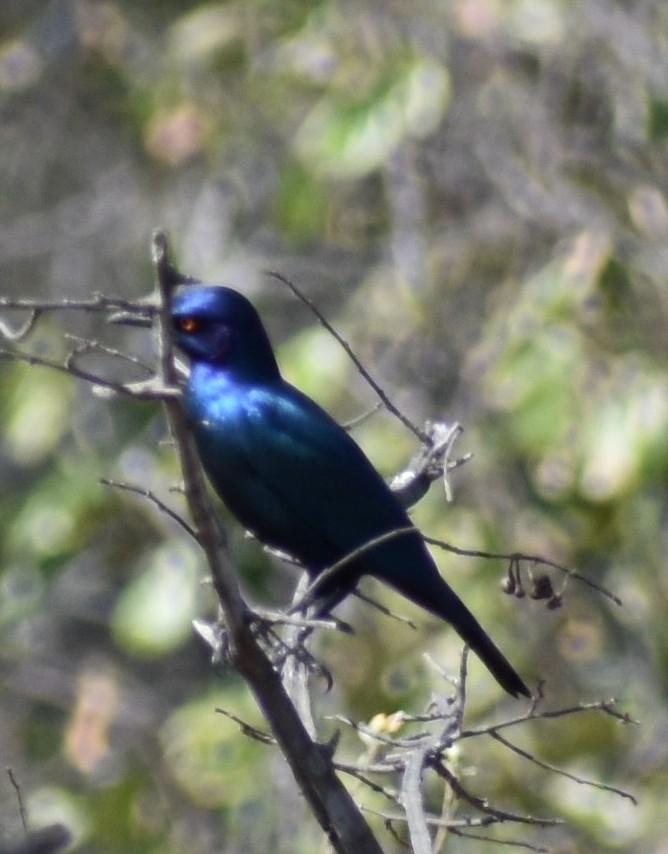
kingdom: Animalia
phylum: Chordata
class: Aves
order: Passeriformes
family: Sturnidae
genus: Lamprotornis
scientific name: Lamprotornis nitens
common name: Cape starling
